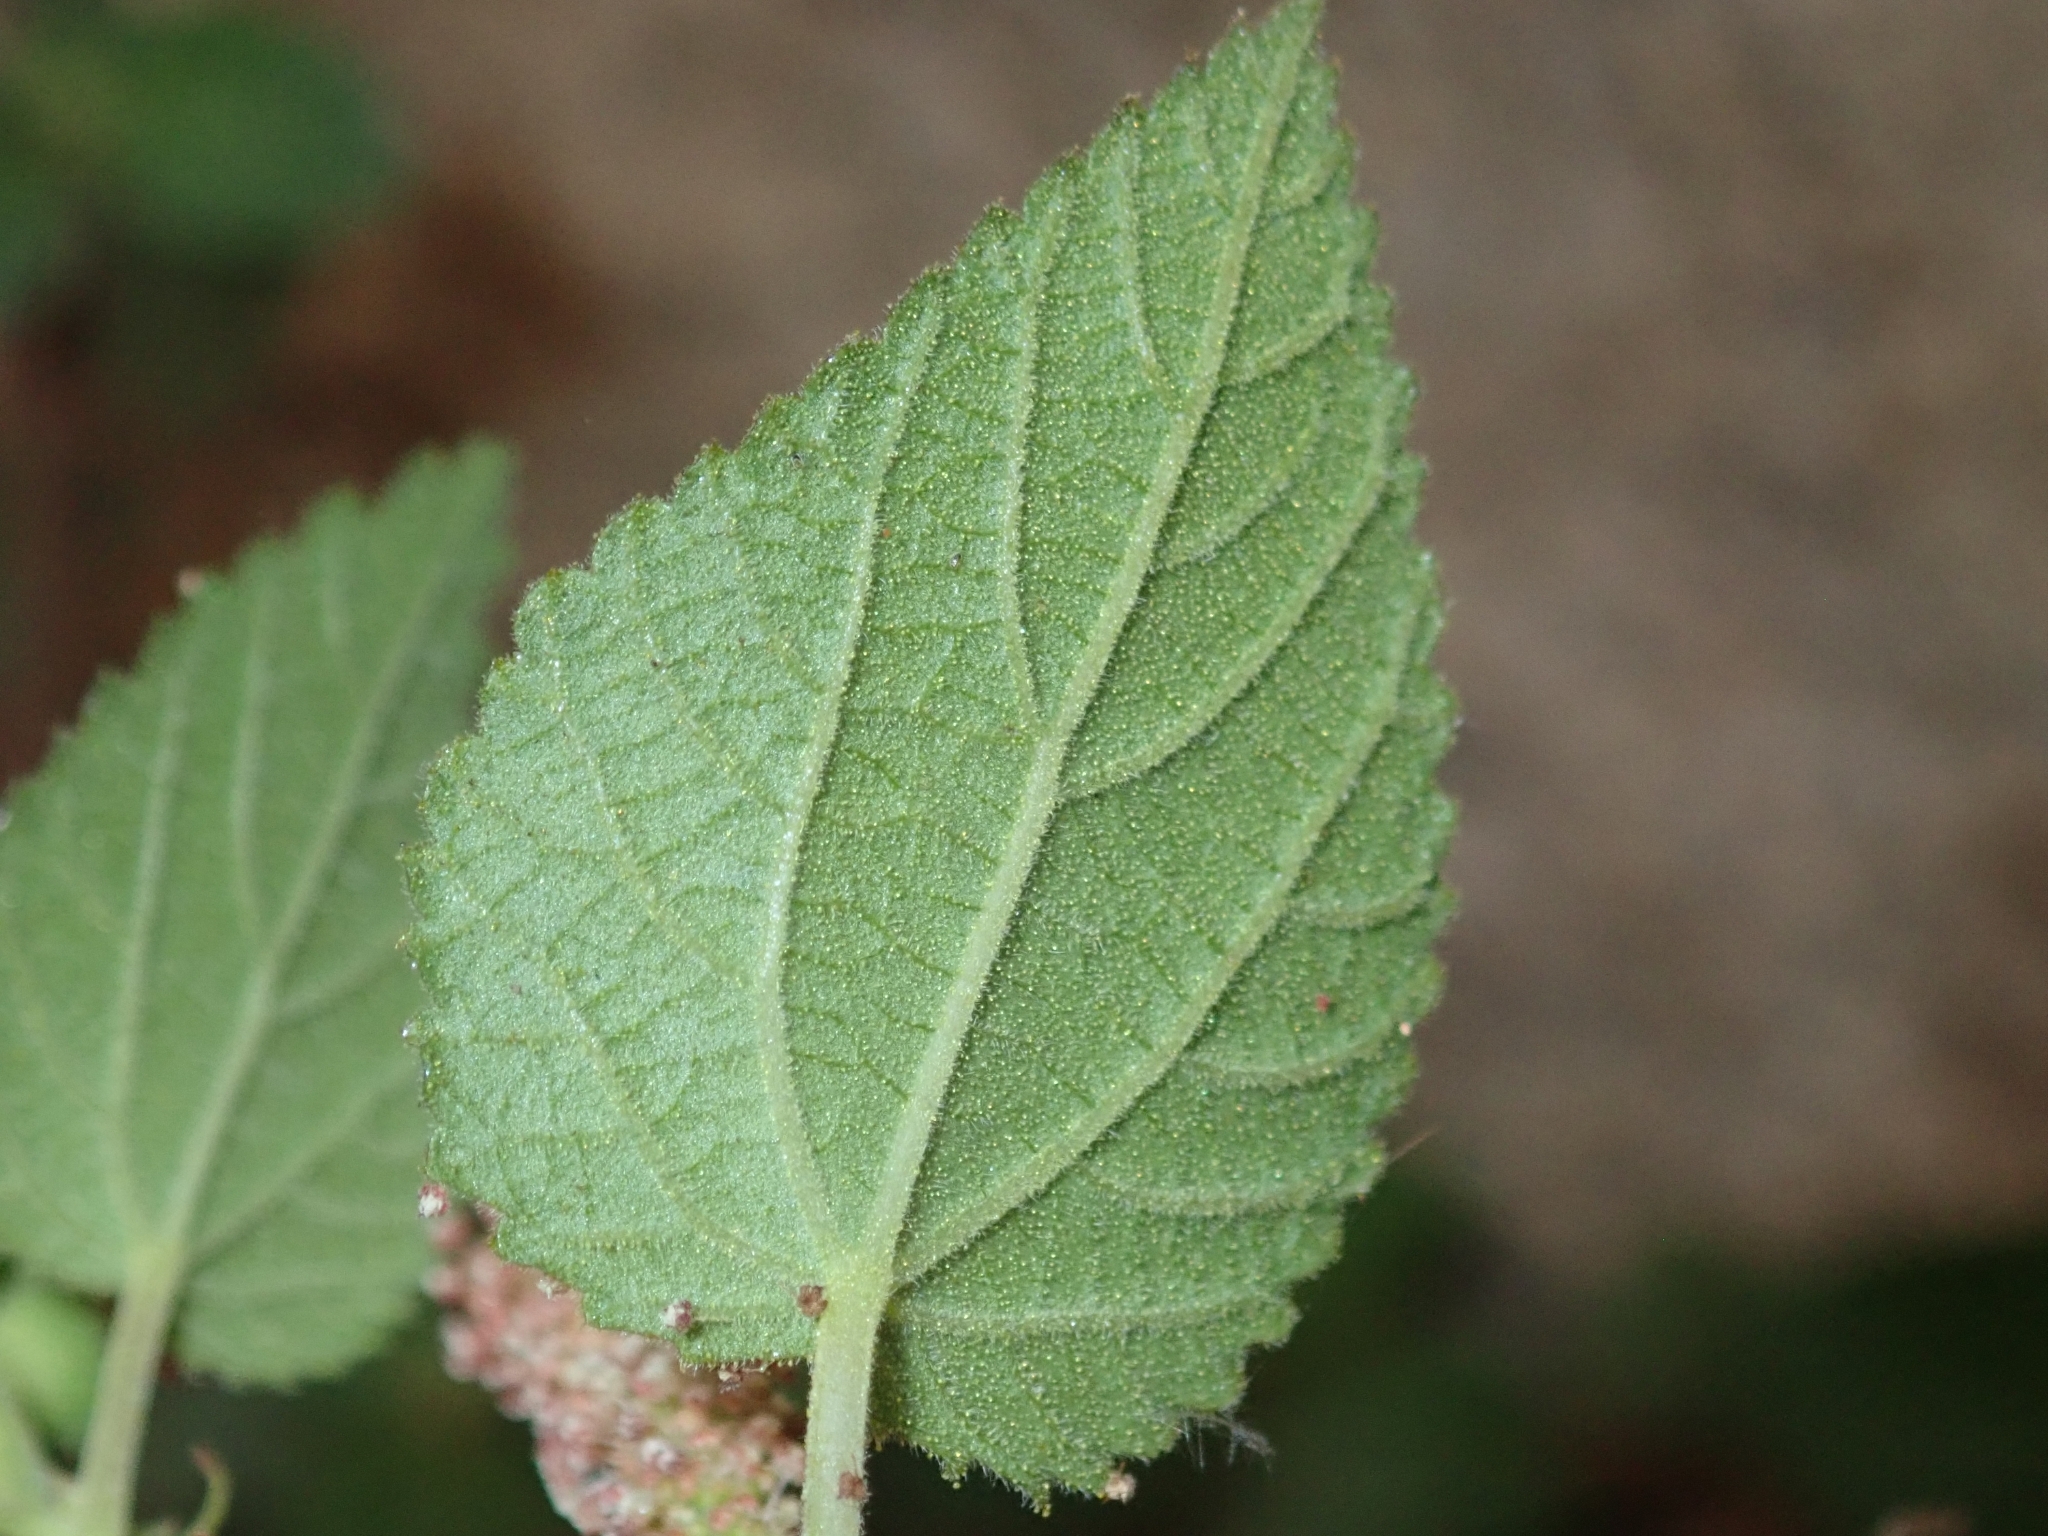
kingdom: Plantae
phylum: Tracheophyta
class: Magnoliopsida
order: Malpighiales
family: Euphorbiaceae
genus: Acalypha
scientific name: Acalypha californica
